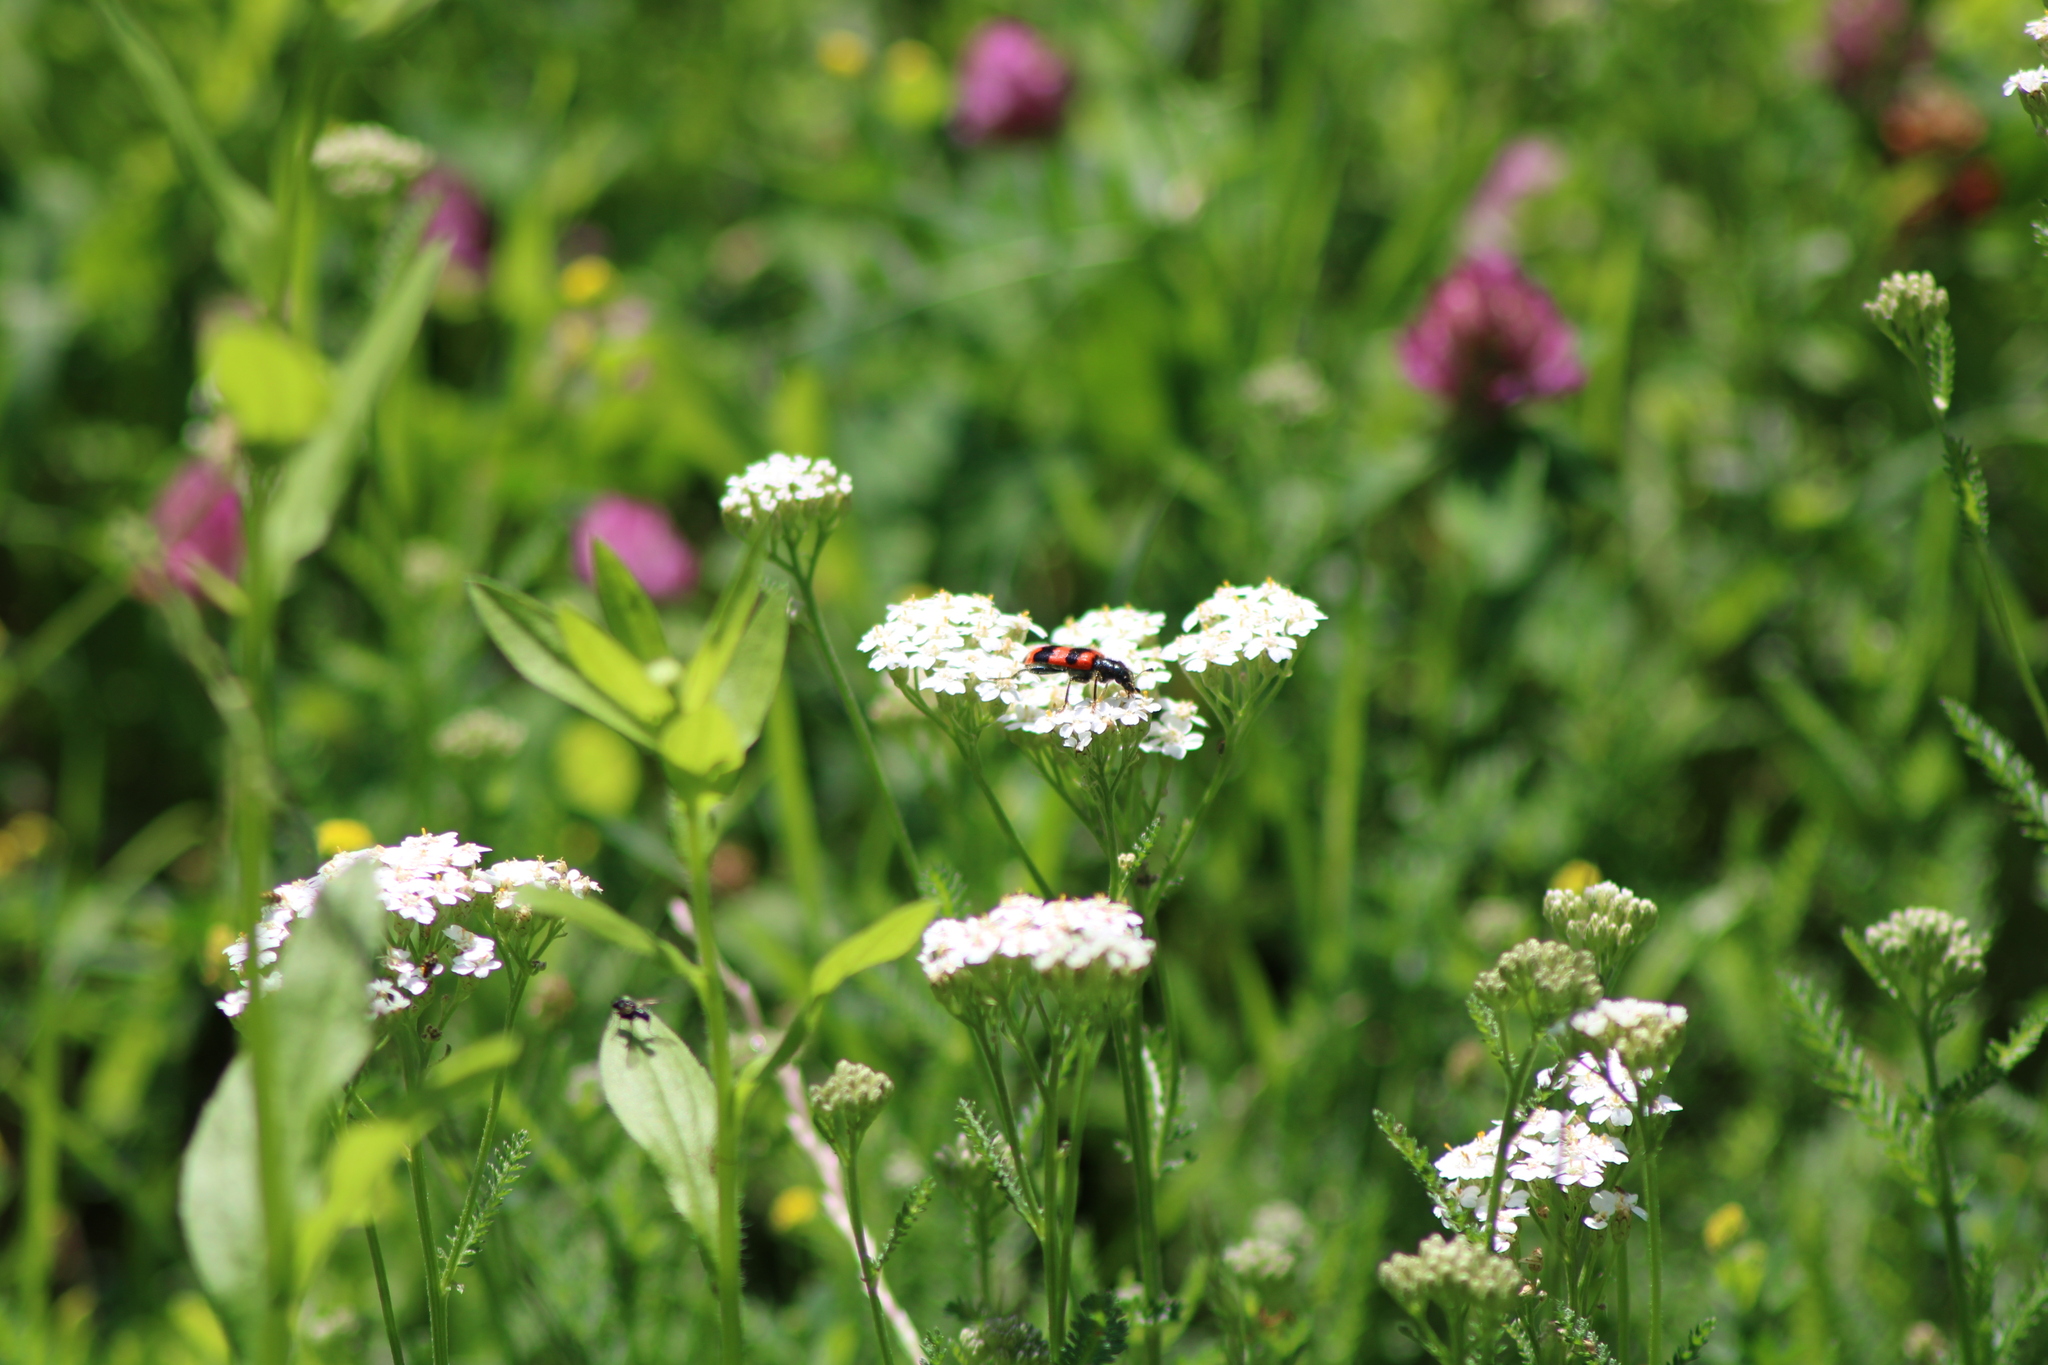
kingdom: Animalia
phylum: Arthropoda
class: Insecta
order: Coleoptera
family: Cleridae
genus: Trichodes
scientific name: Trichodes apiarius
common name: Bee-eating beetle
